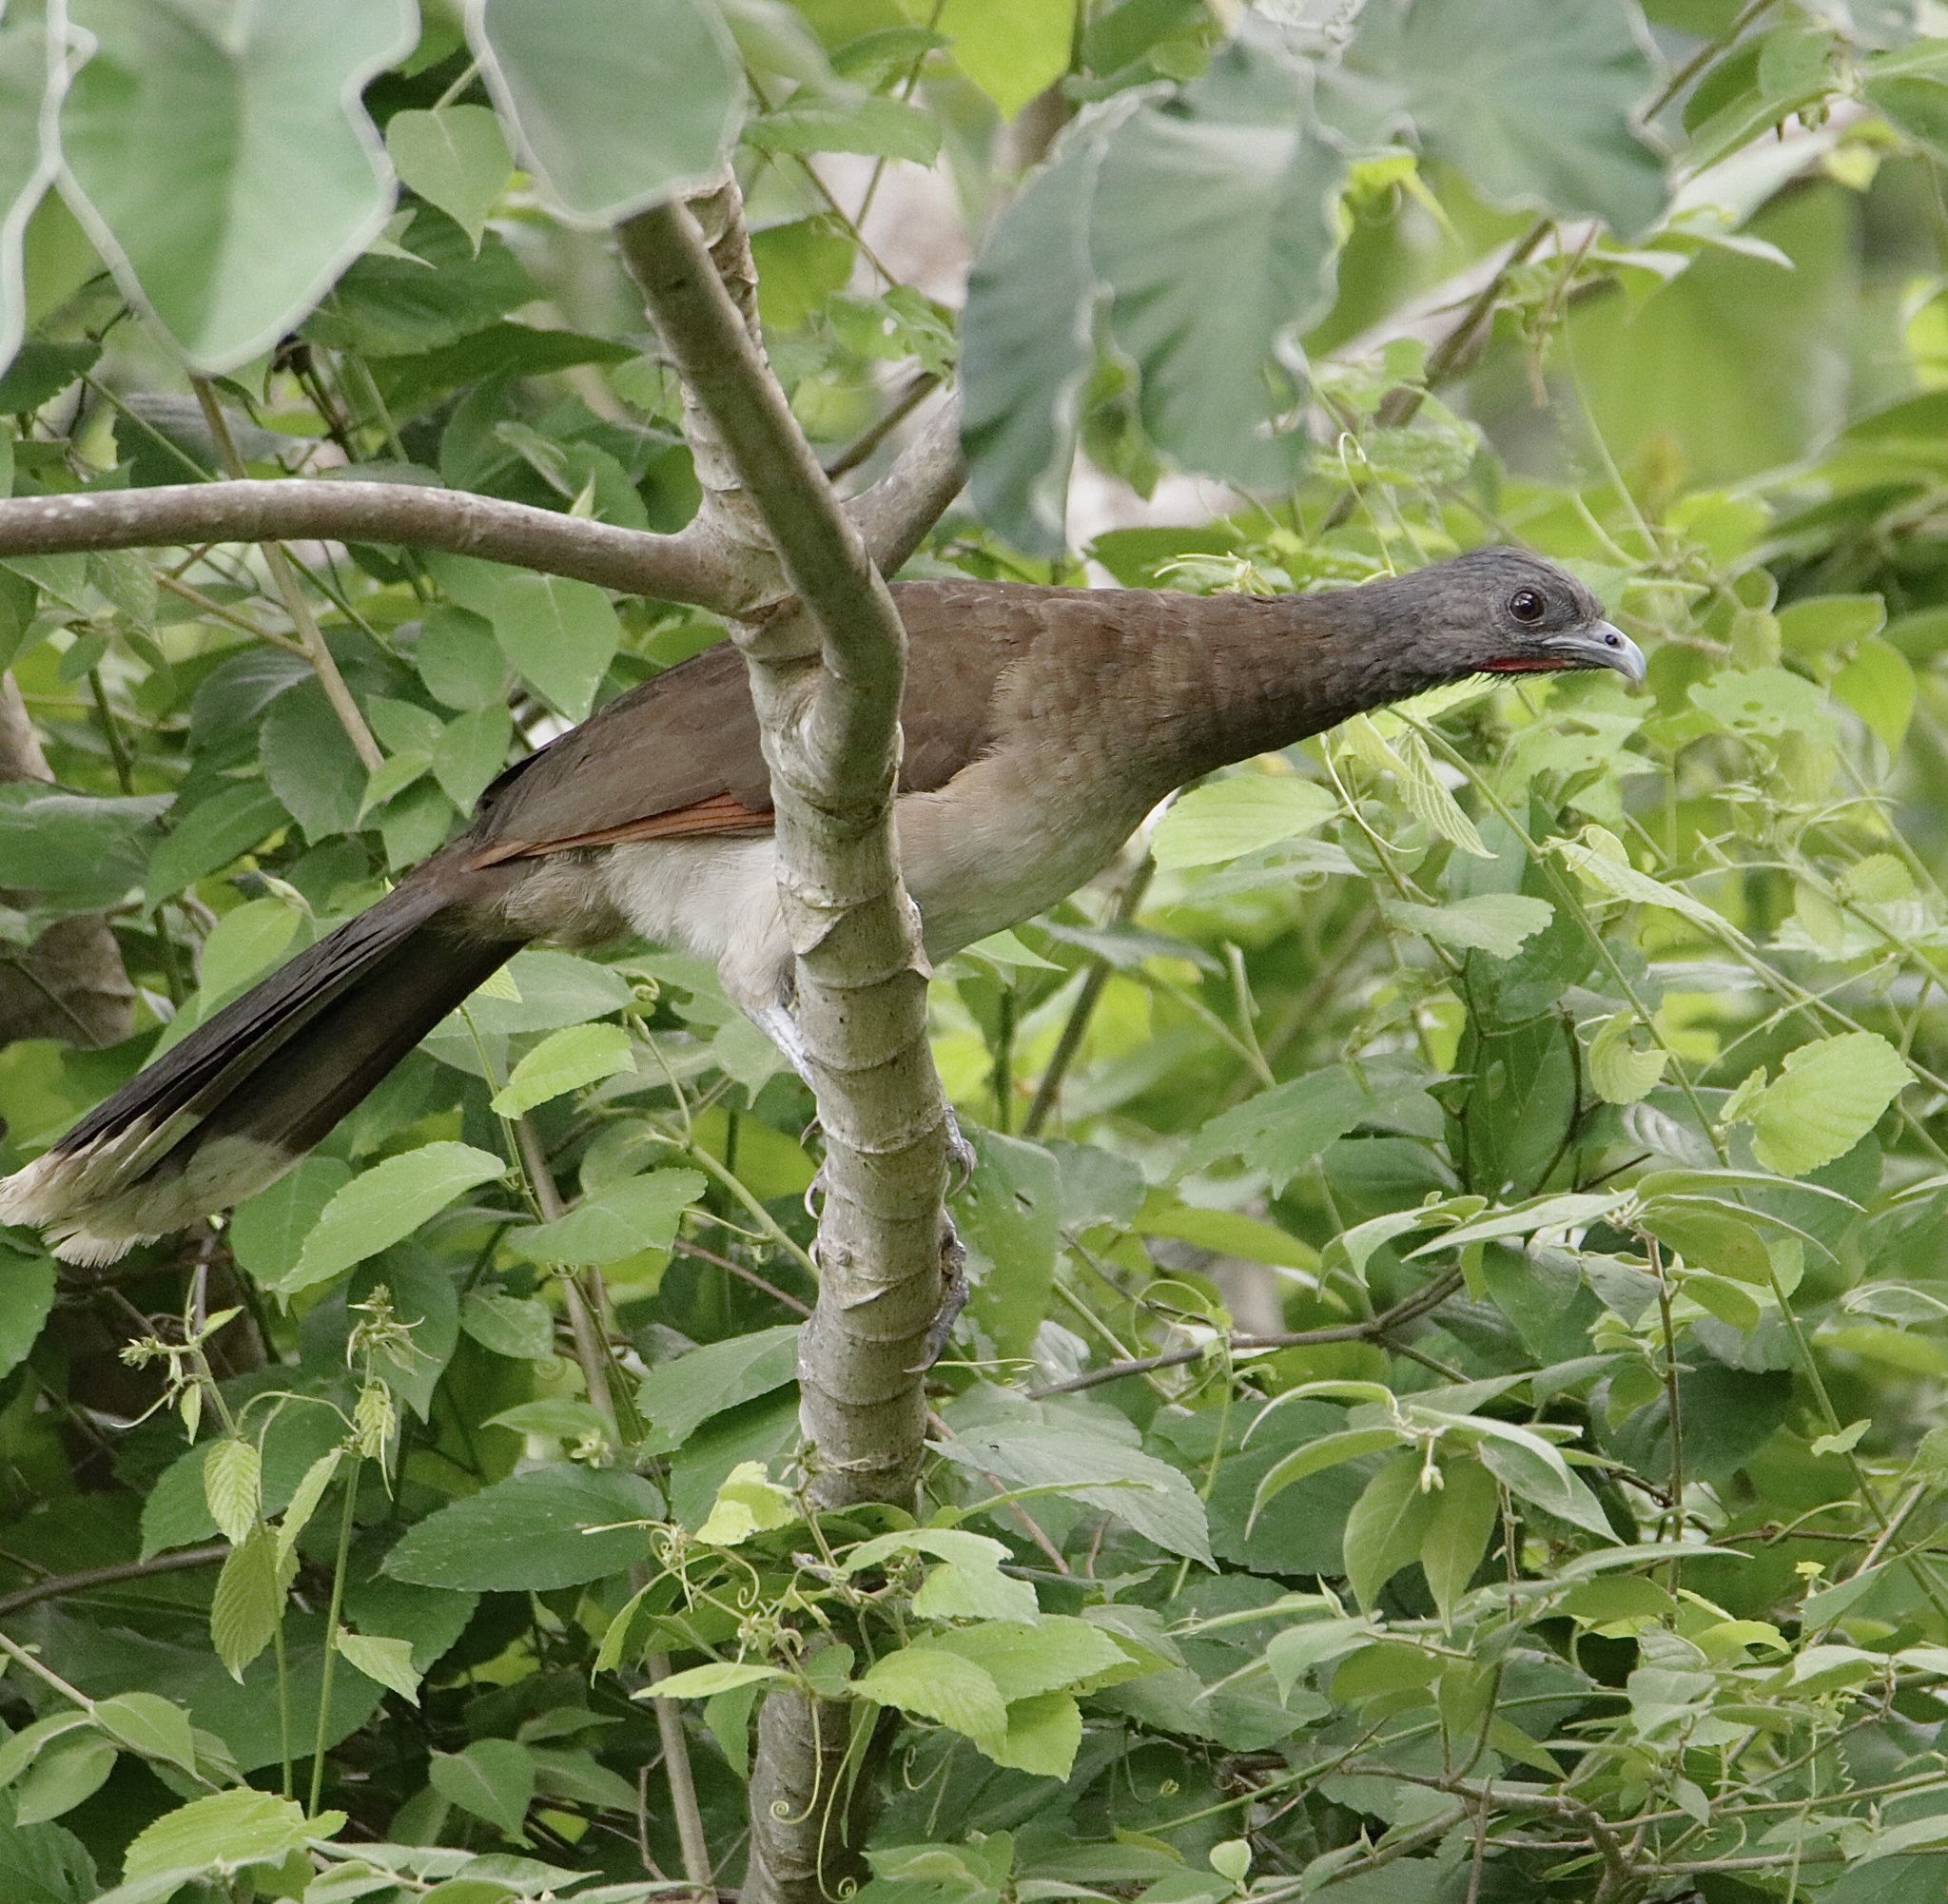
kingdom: Animalia
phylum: Chordata
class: Aves
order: Galliformes
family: Cracidae
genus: Ortalis
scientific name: Ortalis cinereiceps
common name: Grey-headed chachalaca
